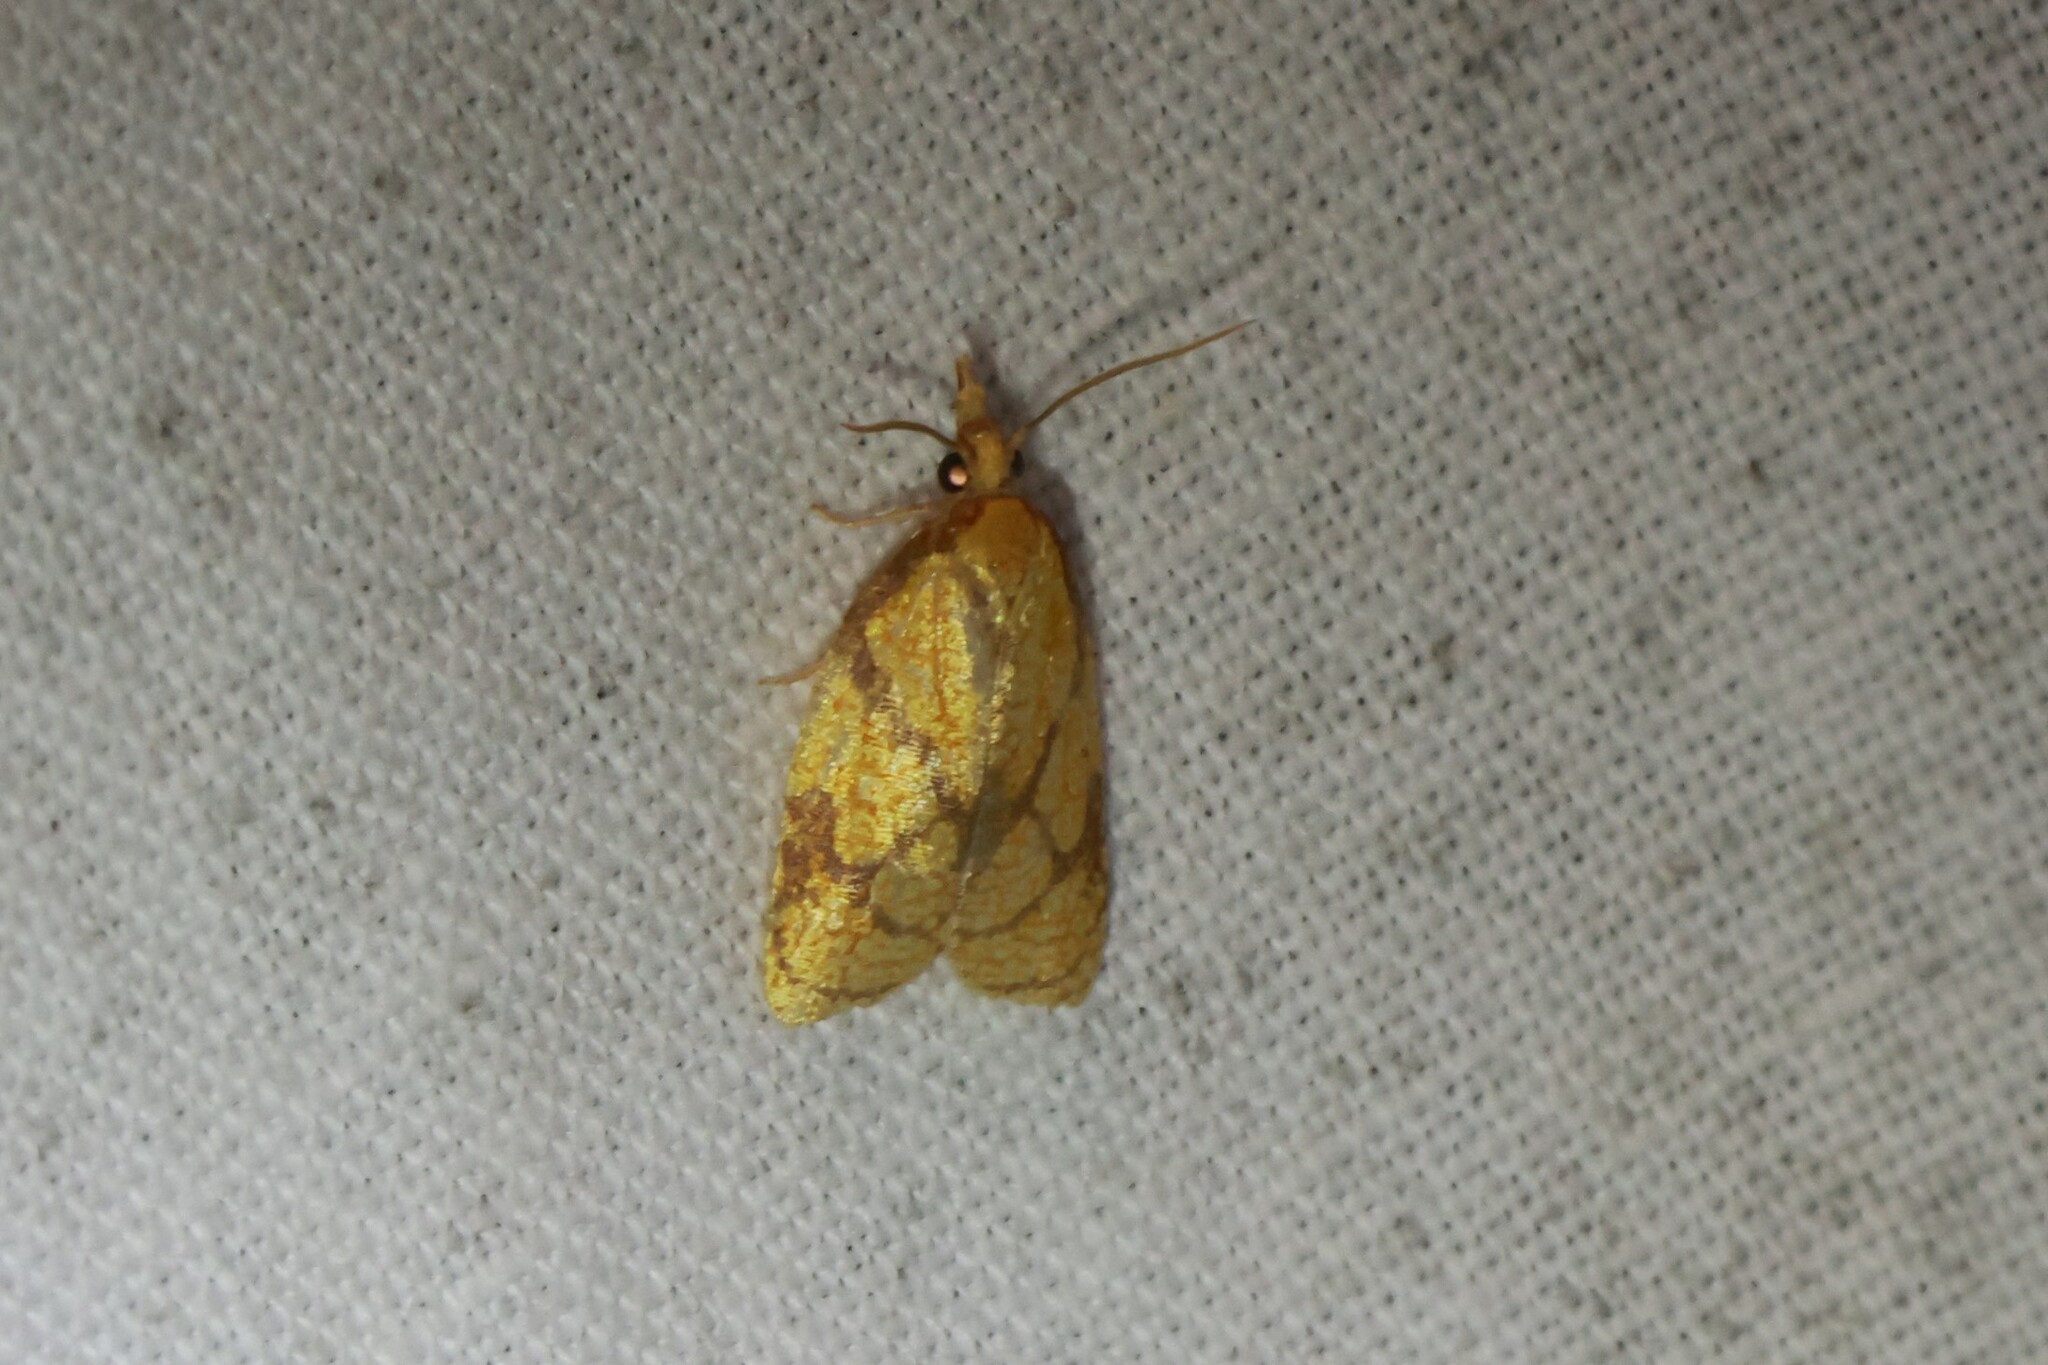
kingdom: Animalia
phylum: Arthropoda
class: Insecta
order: Lepidoptera
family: Tortricidae
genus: Cenopis
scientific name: Cenopis reticulatana
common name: Reticulated fruitworm moth
